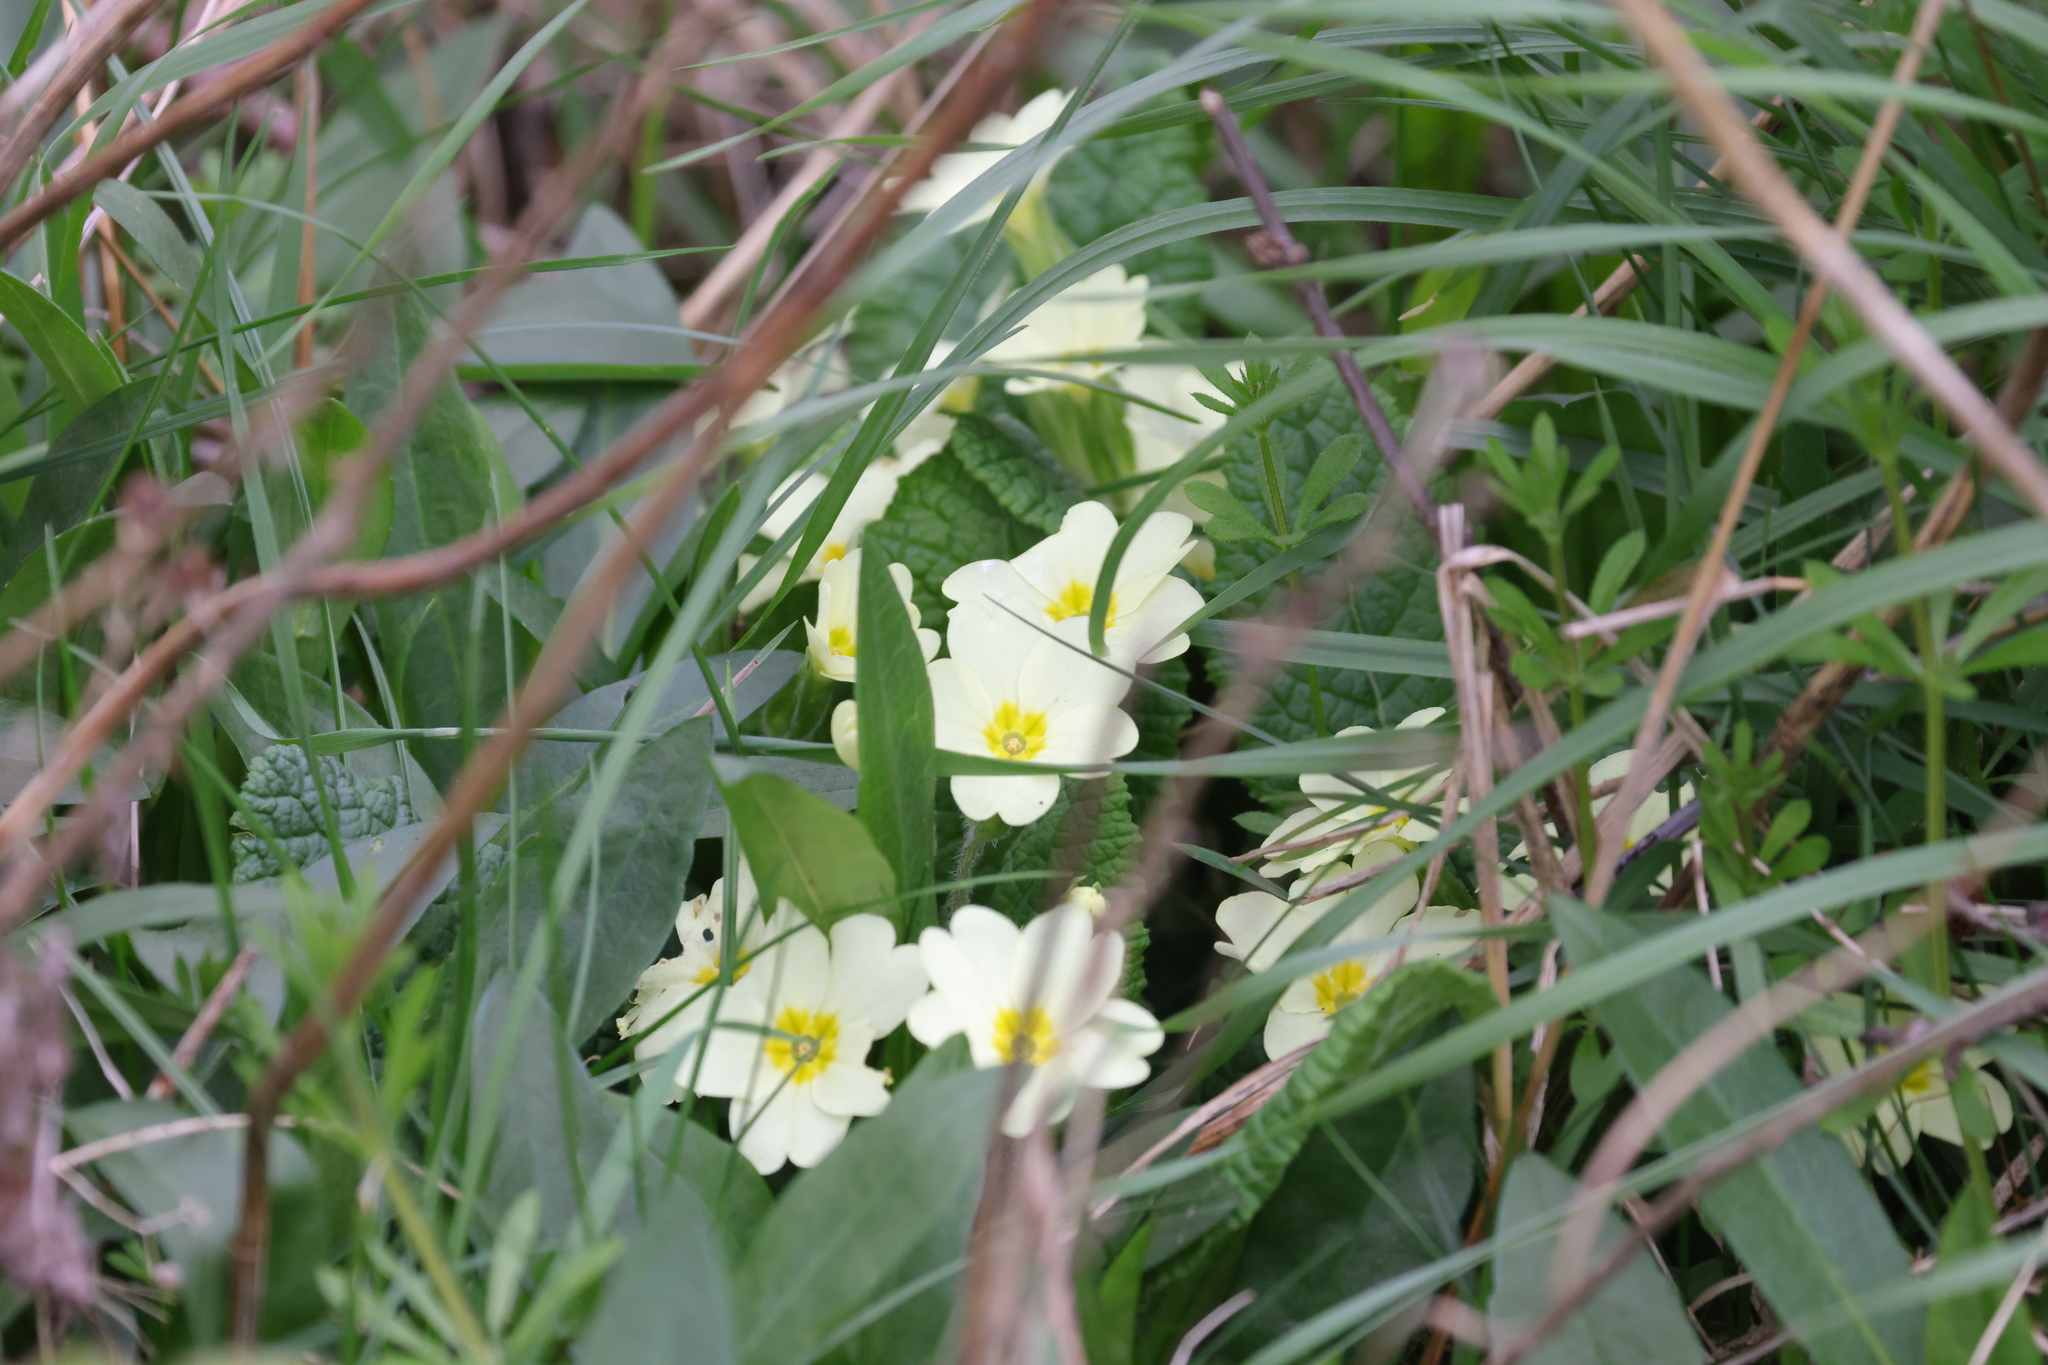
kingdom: Plantae
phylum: Tracheophyta
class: Magnoliopsida
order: Ericales
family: Primulaceae
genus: Primula
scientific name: Primula vulgaris
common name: Primrose
